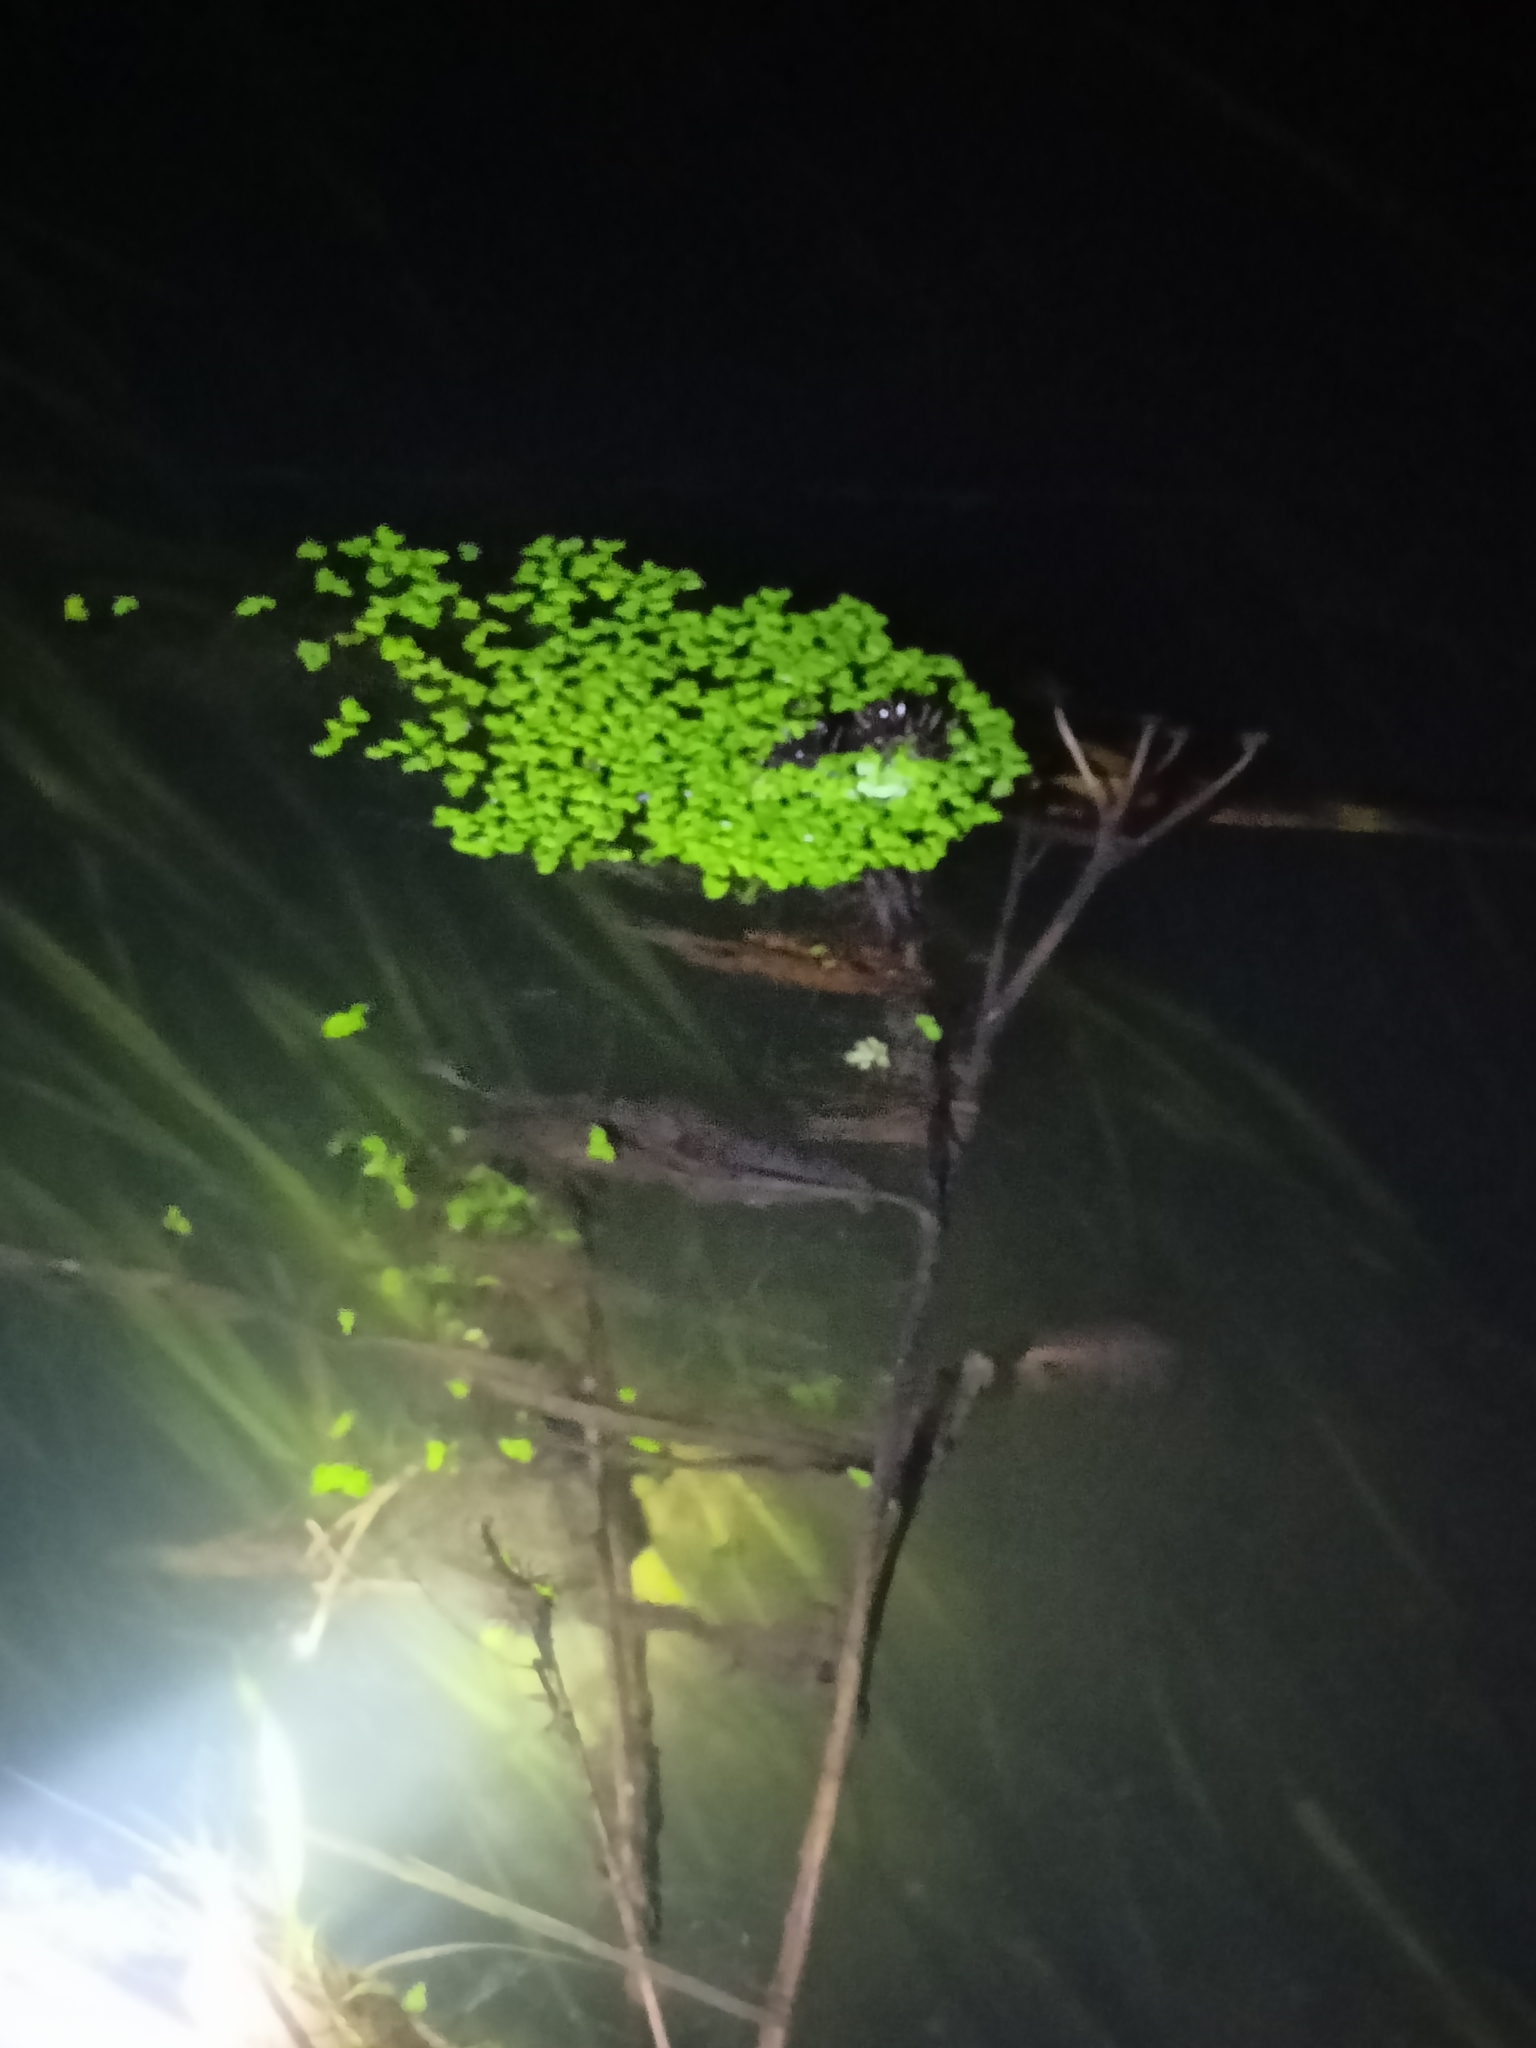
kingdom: Plantae
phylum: Tracheophyta
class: Liliopsida
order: Alismatales
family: Araceae
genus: Lemna
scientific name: Lemna minor
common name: Common duckweed
